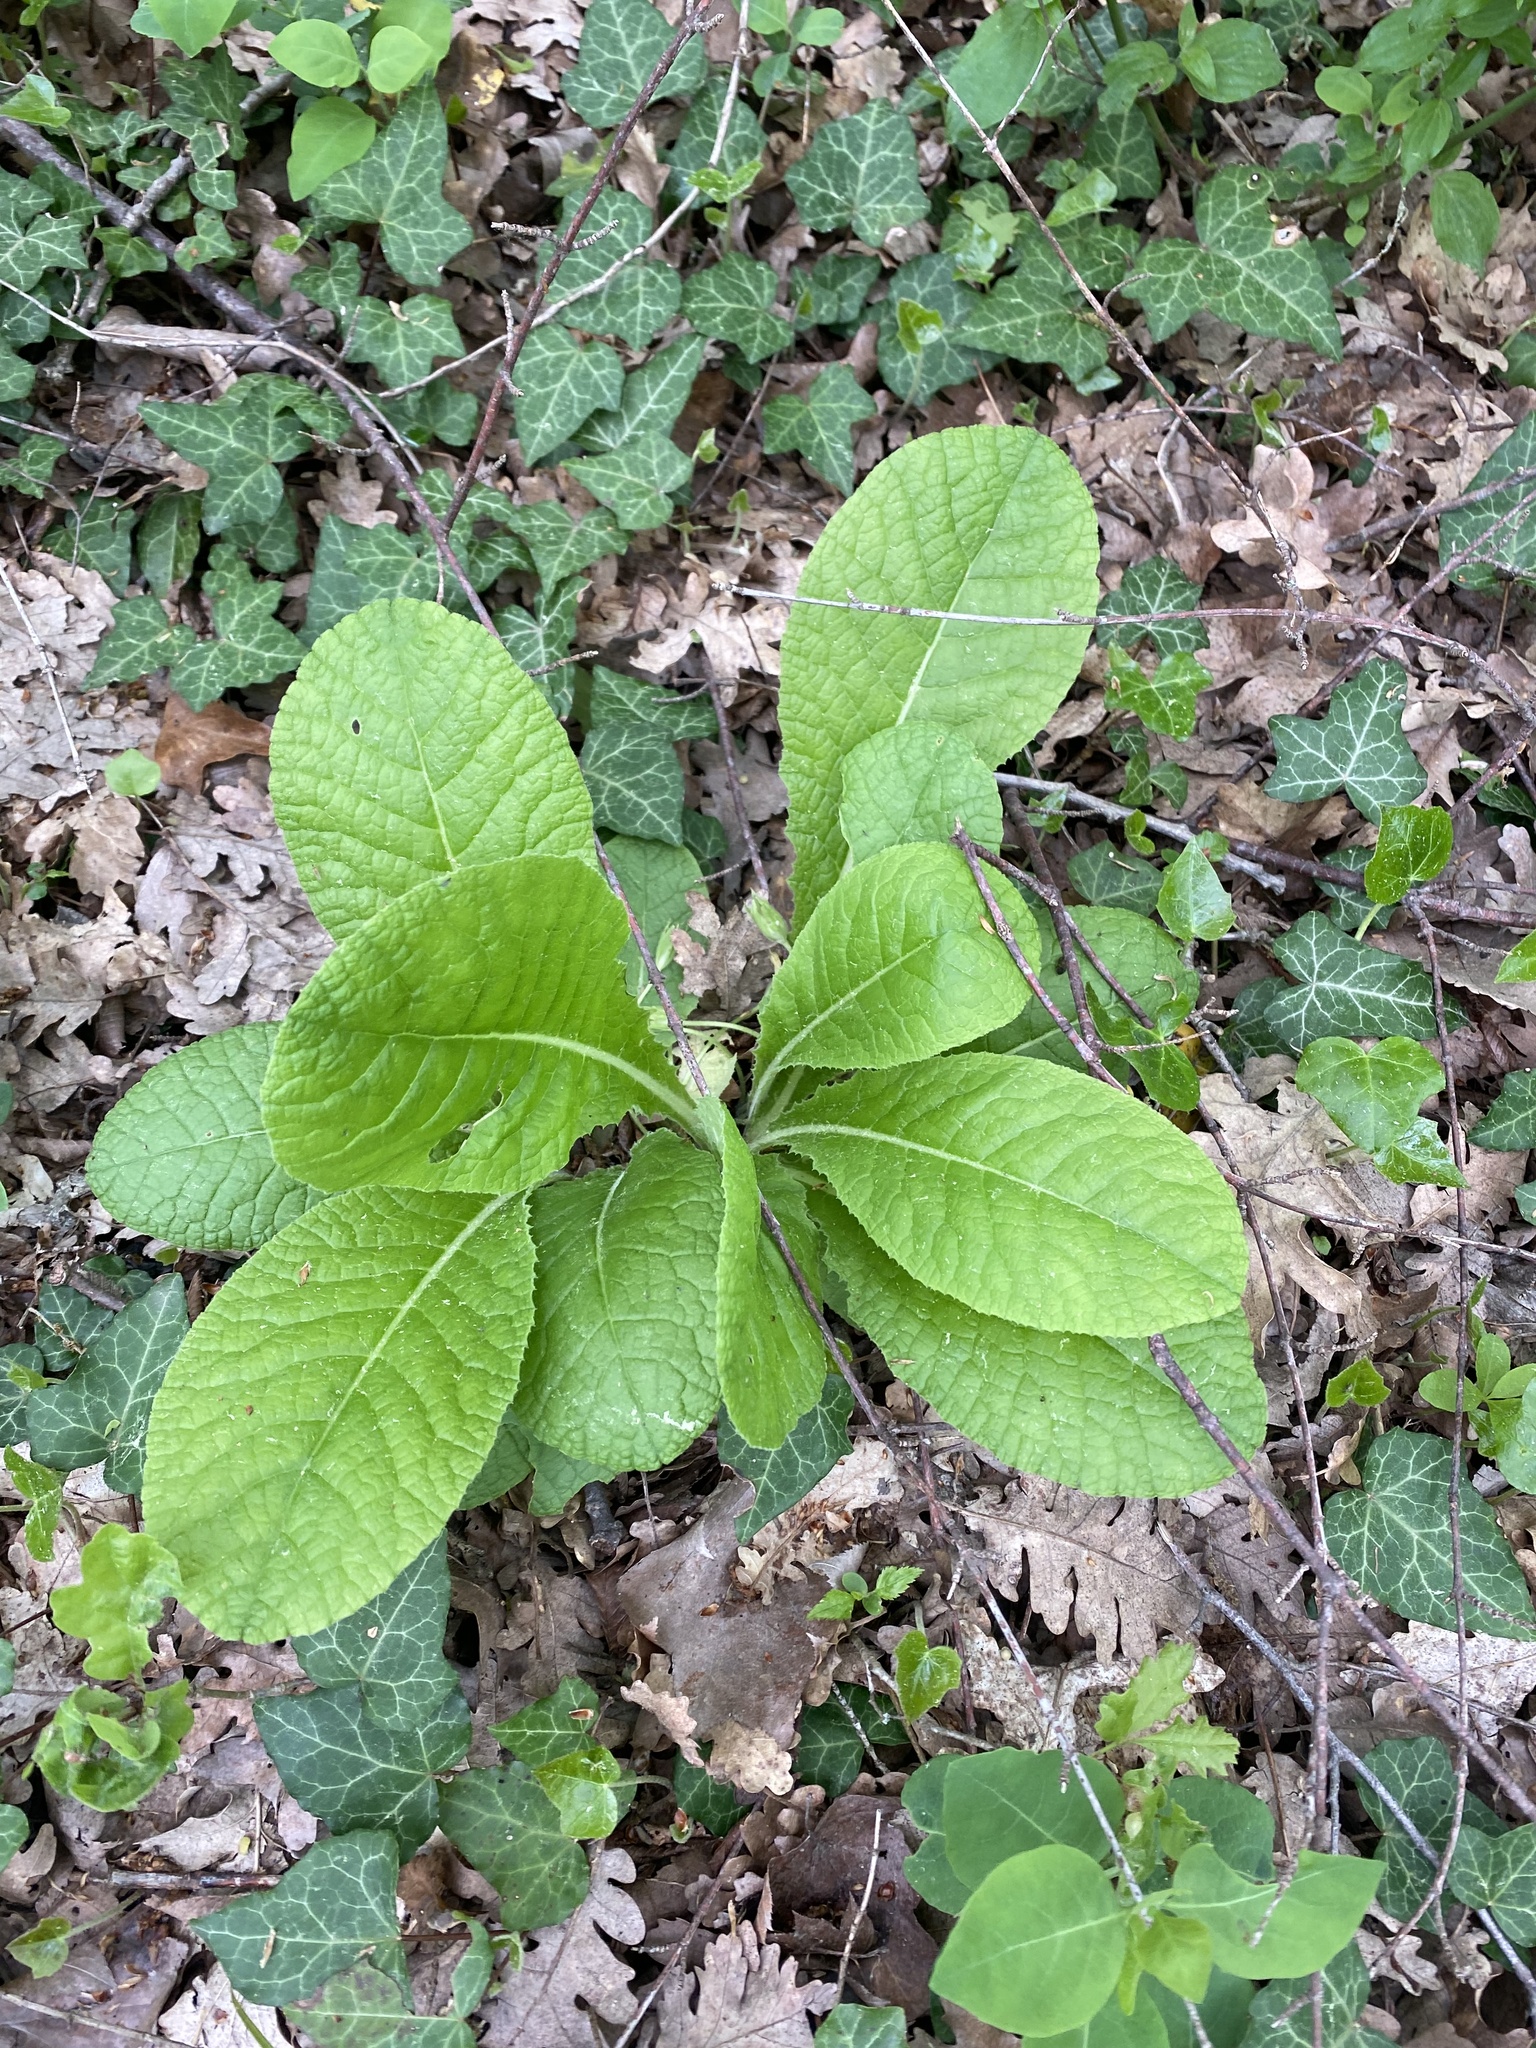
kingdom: Plantae
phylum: Tracheophyta
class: Magnoliopsida
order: Ericales
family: Primulaceae
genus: Primula
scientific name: Primula vulgaris
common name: Primrose
